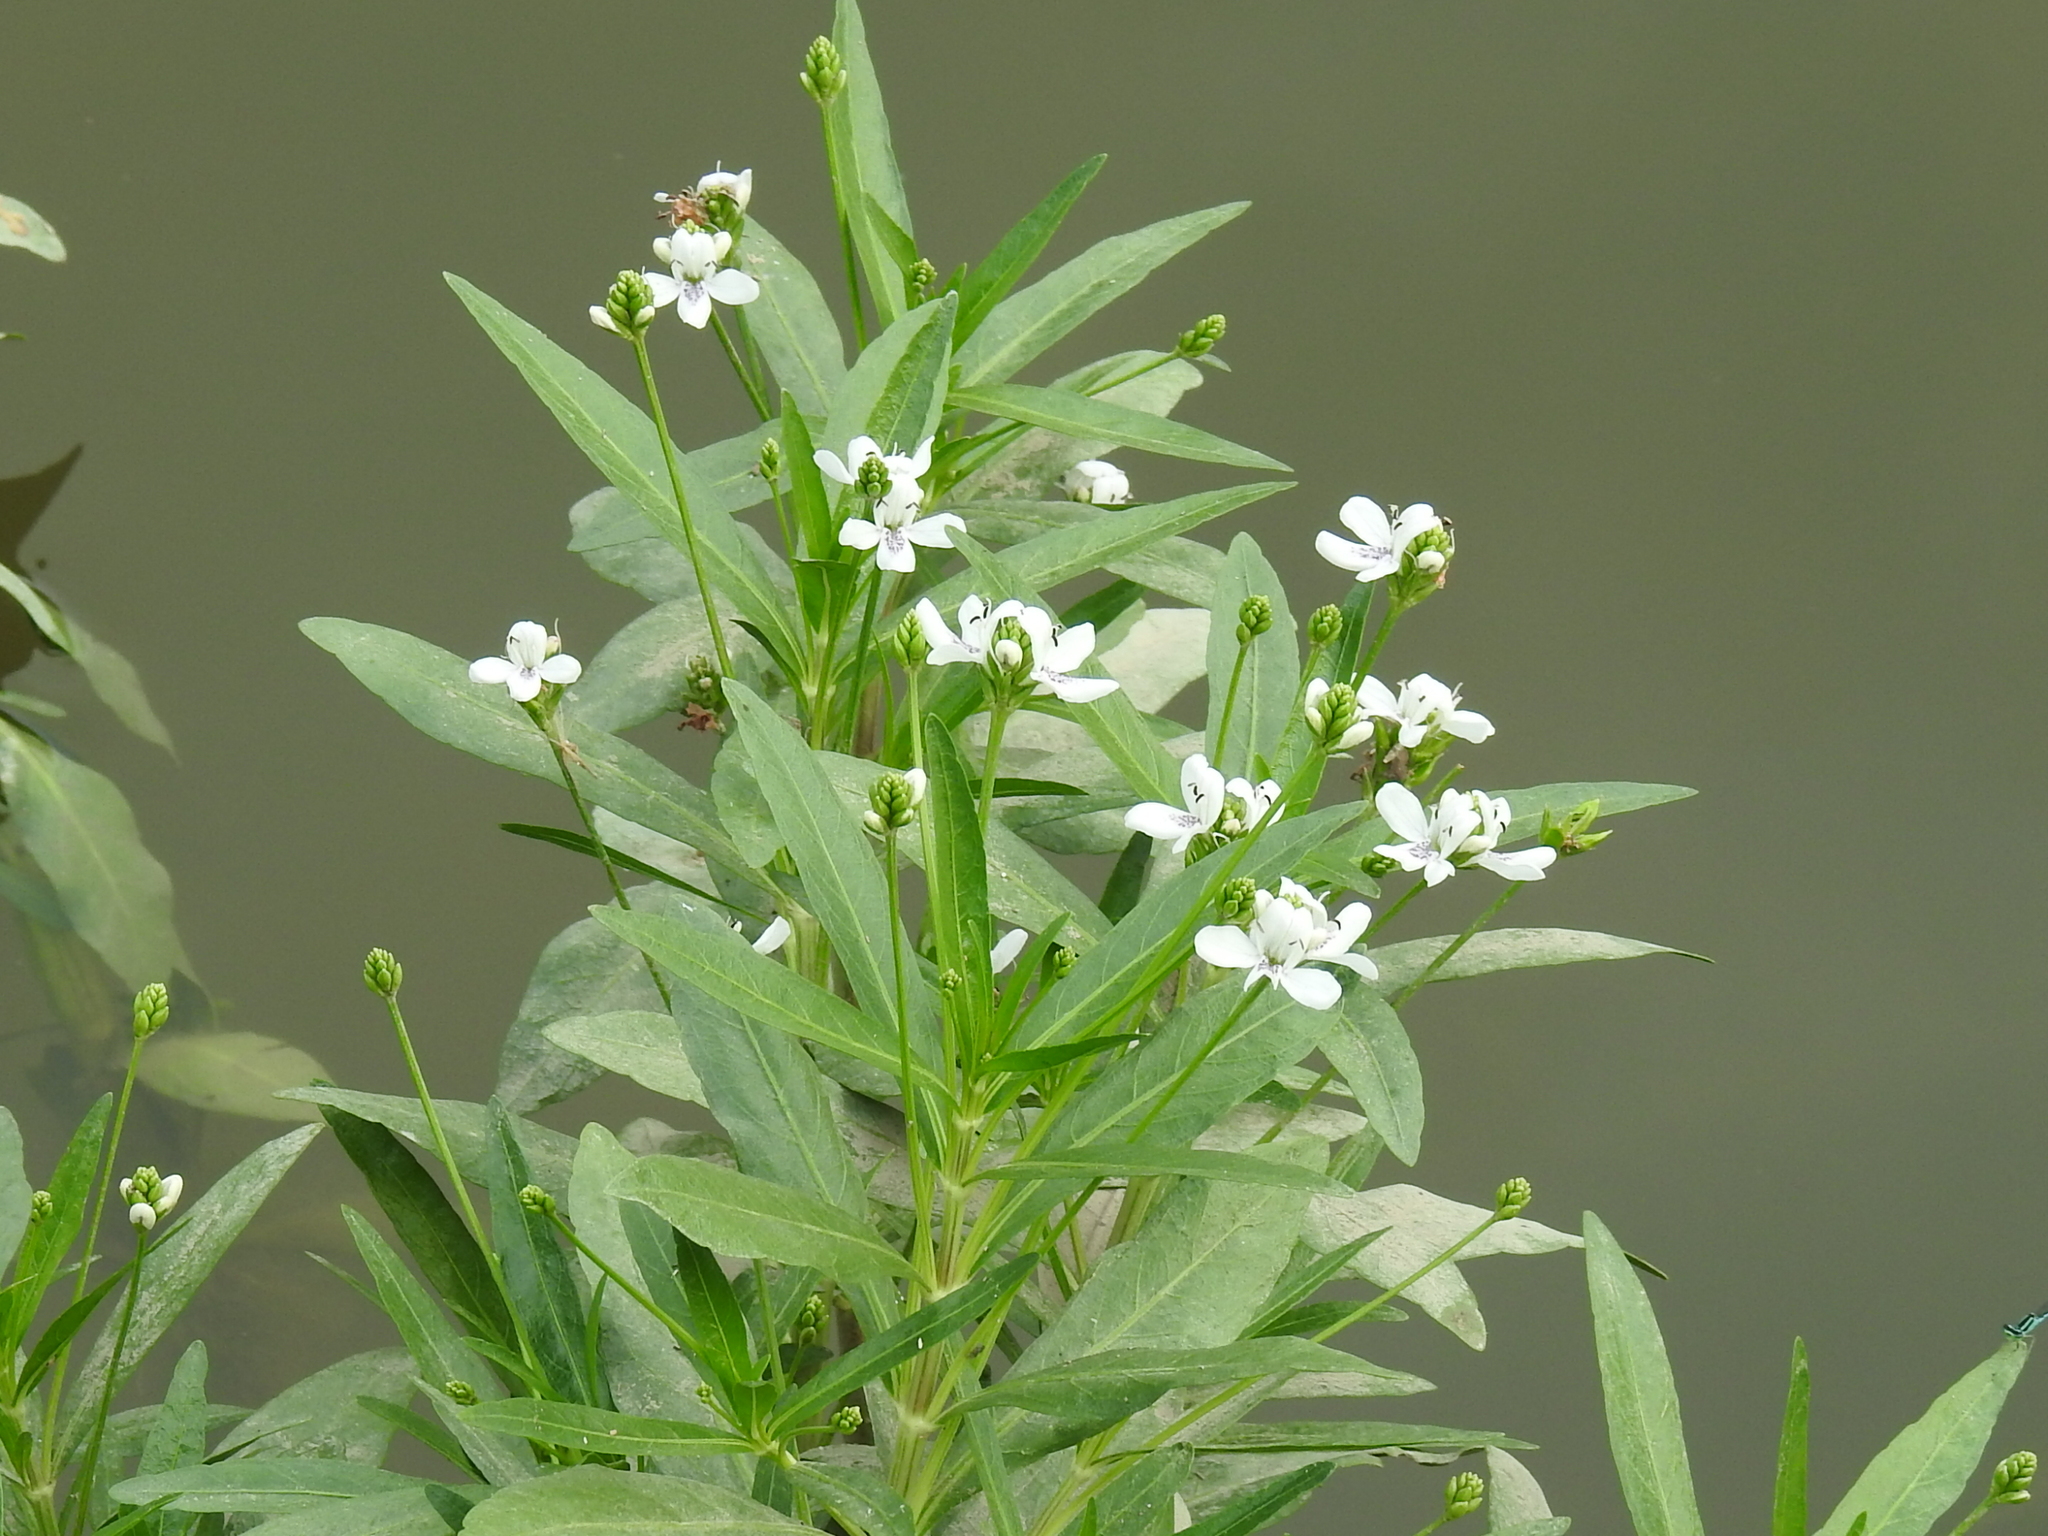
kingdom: Plantae
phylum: Tracheophyta
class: Magnoliopsida
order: Lamiales
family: Acanthaceae
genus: Dianthera
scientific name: Dianthera americana
